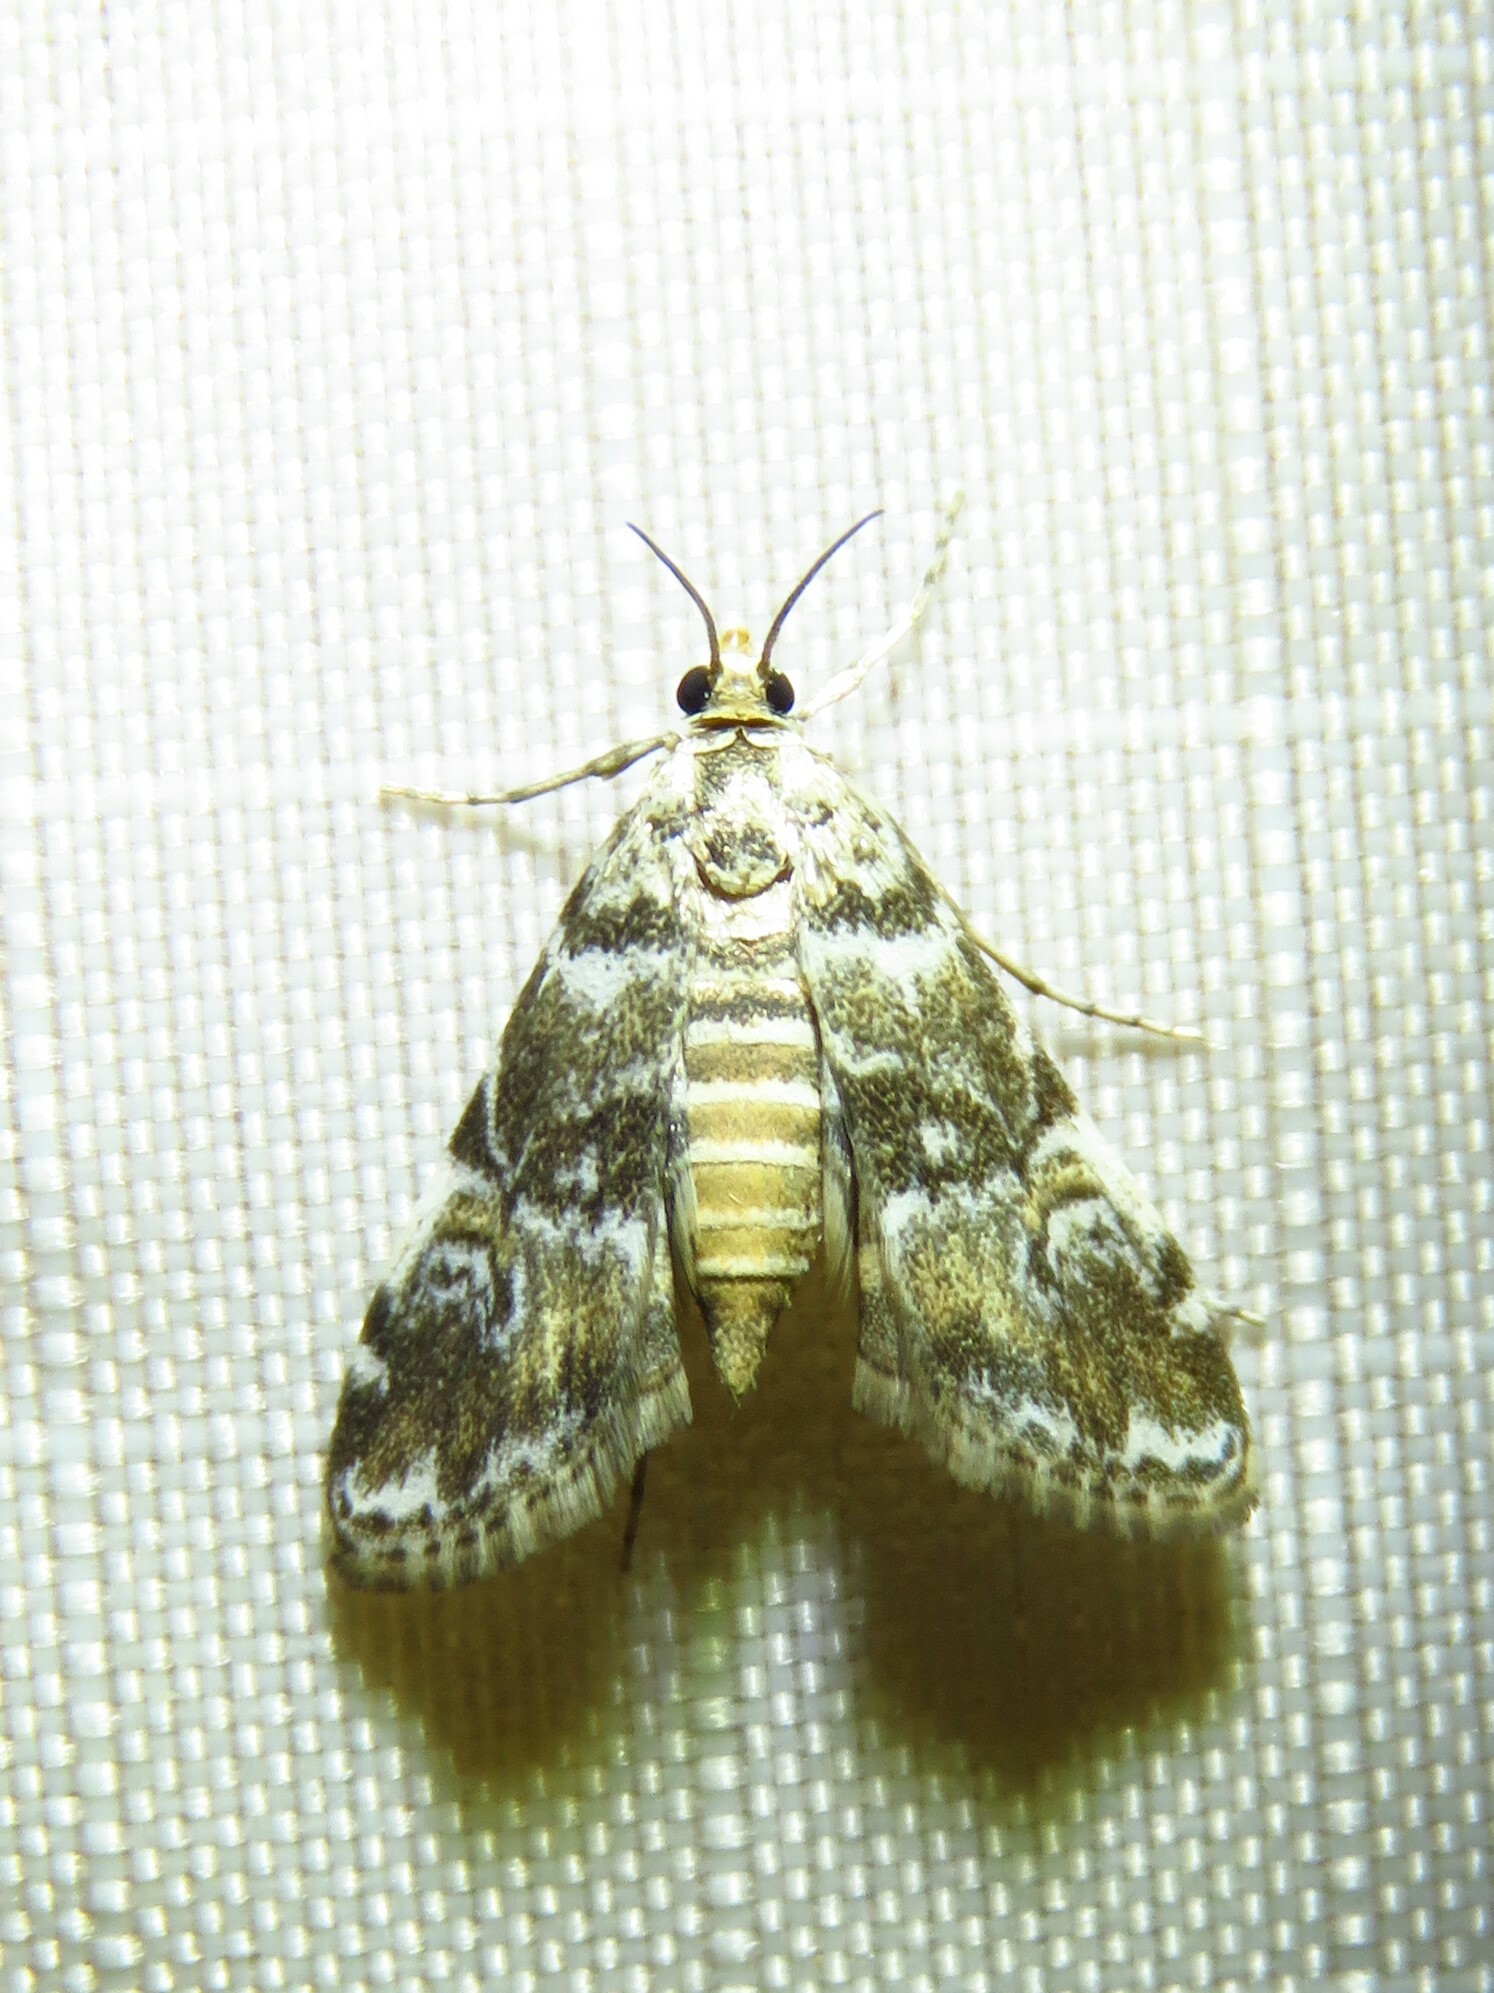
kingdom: Animalia
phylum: Arthropoda
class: Insecta
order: Lepidoptera
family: Crambidae
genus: Elophila
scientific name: Elophila obliteralis
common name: Waterlily leafcutter moth
